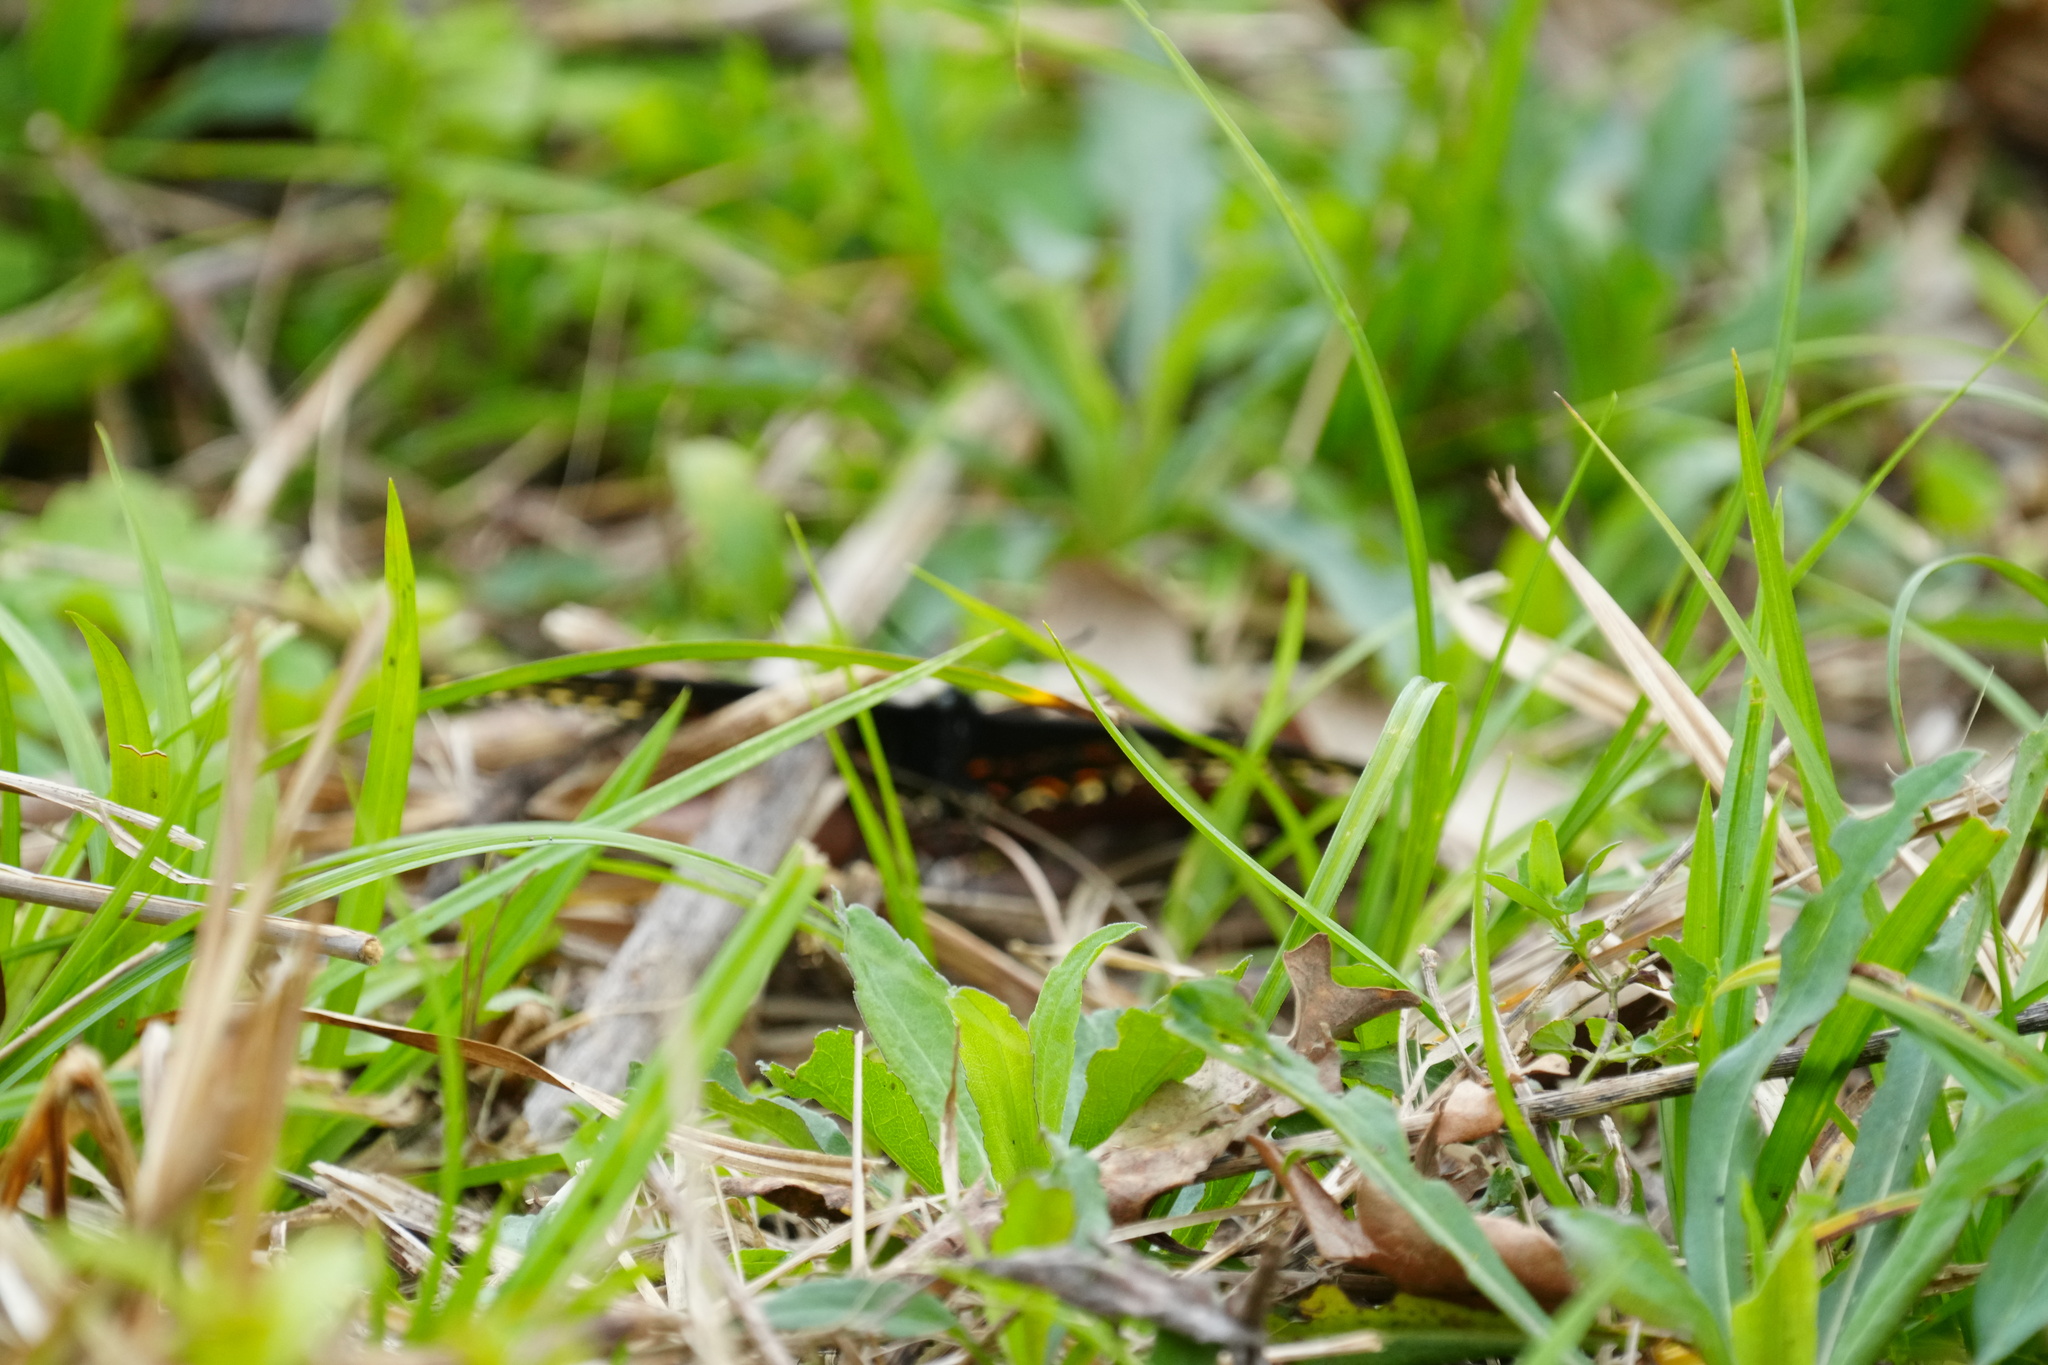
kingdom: Animalia
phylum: Arthropoda
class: Insecta
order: Lepidoptera
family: Papilionidae
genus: Papilio
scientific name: Papilio cresphontes
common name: Giant swallowtail
